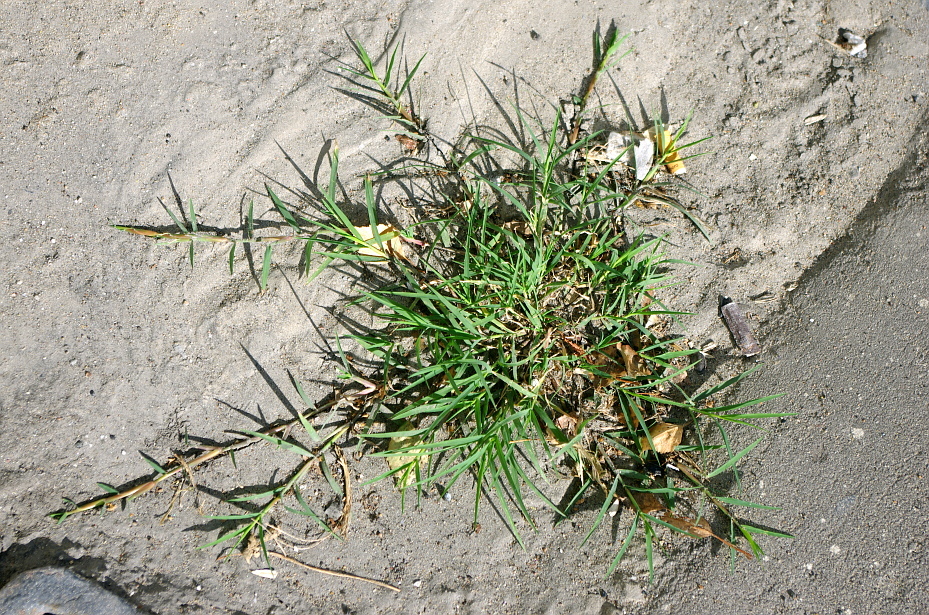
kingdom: Plantae
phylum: Tracheophyta
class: Liliopsida
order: Poales
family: Poaceae
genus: Cynodon
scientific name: Cynodon dactylon
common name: Bermuda grass
